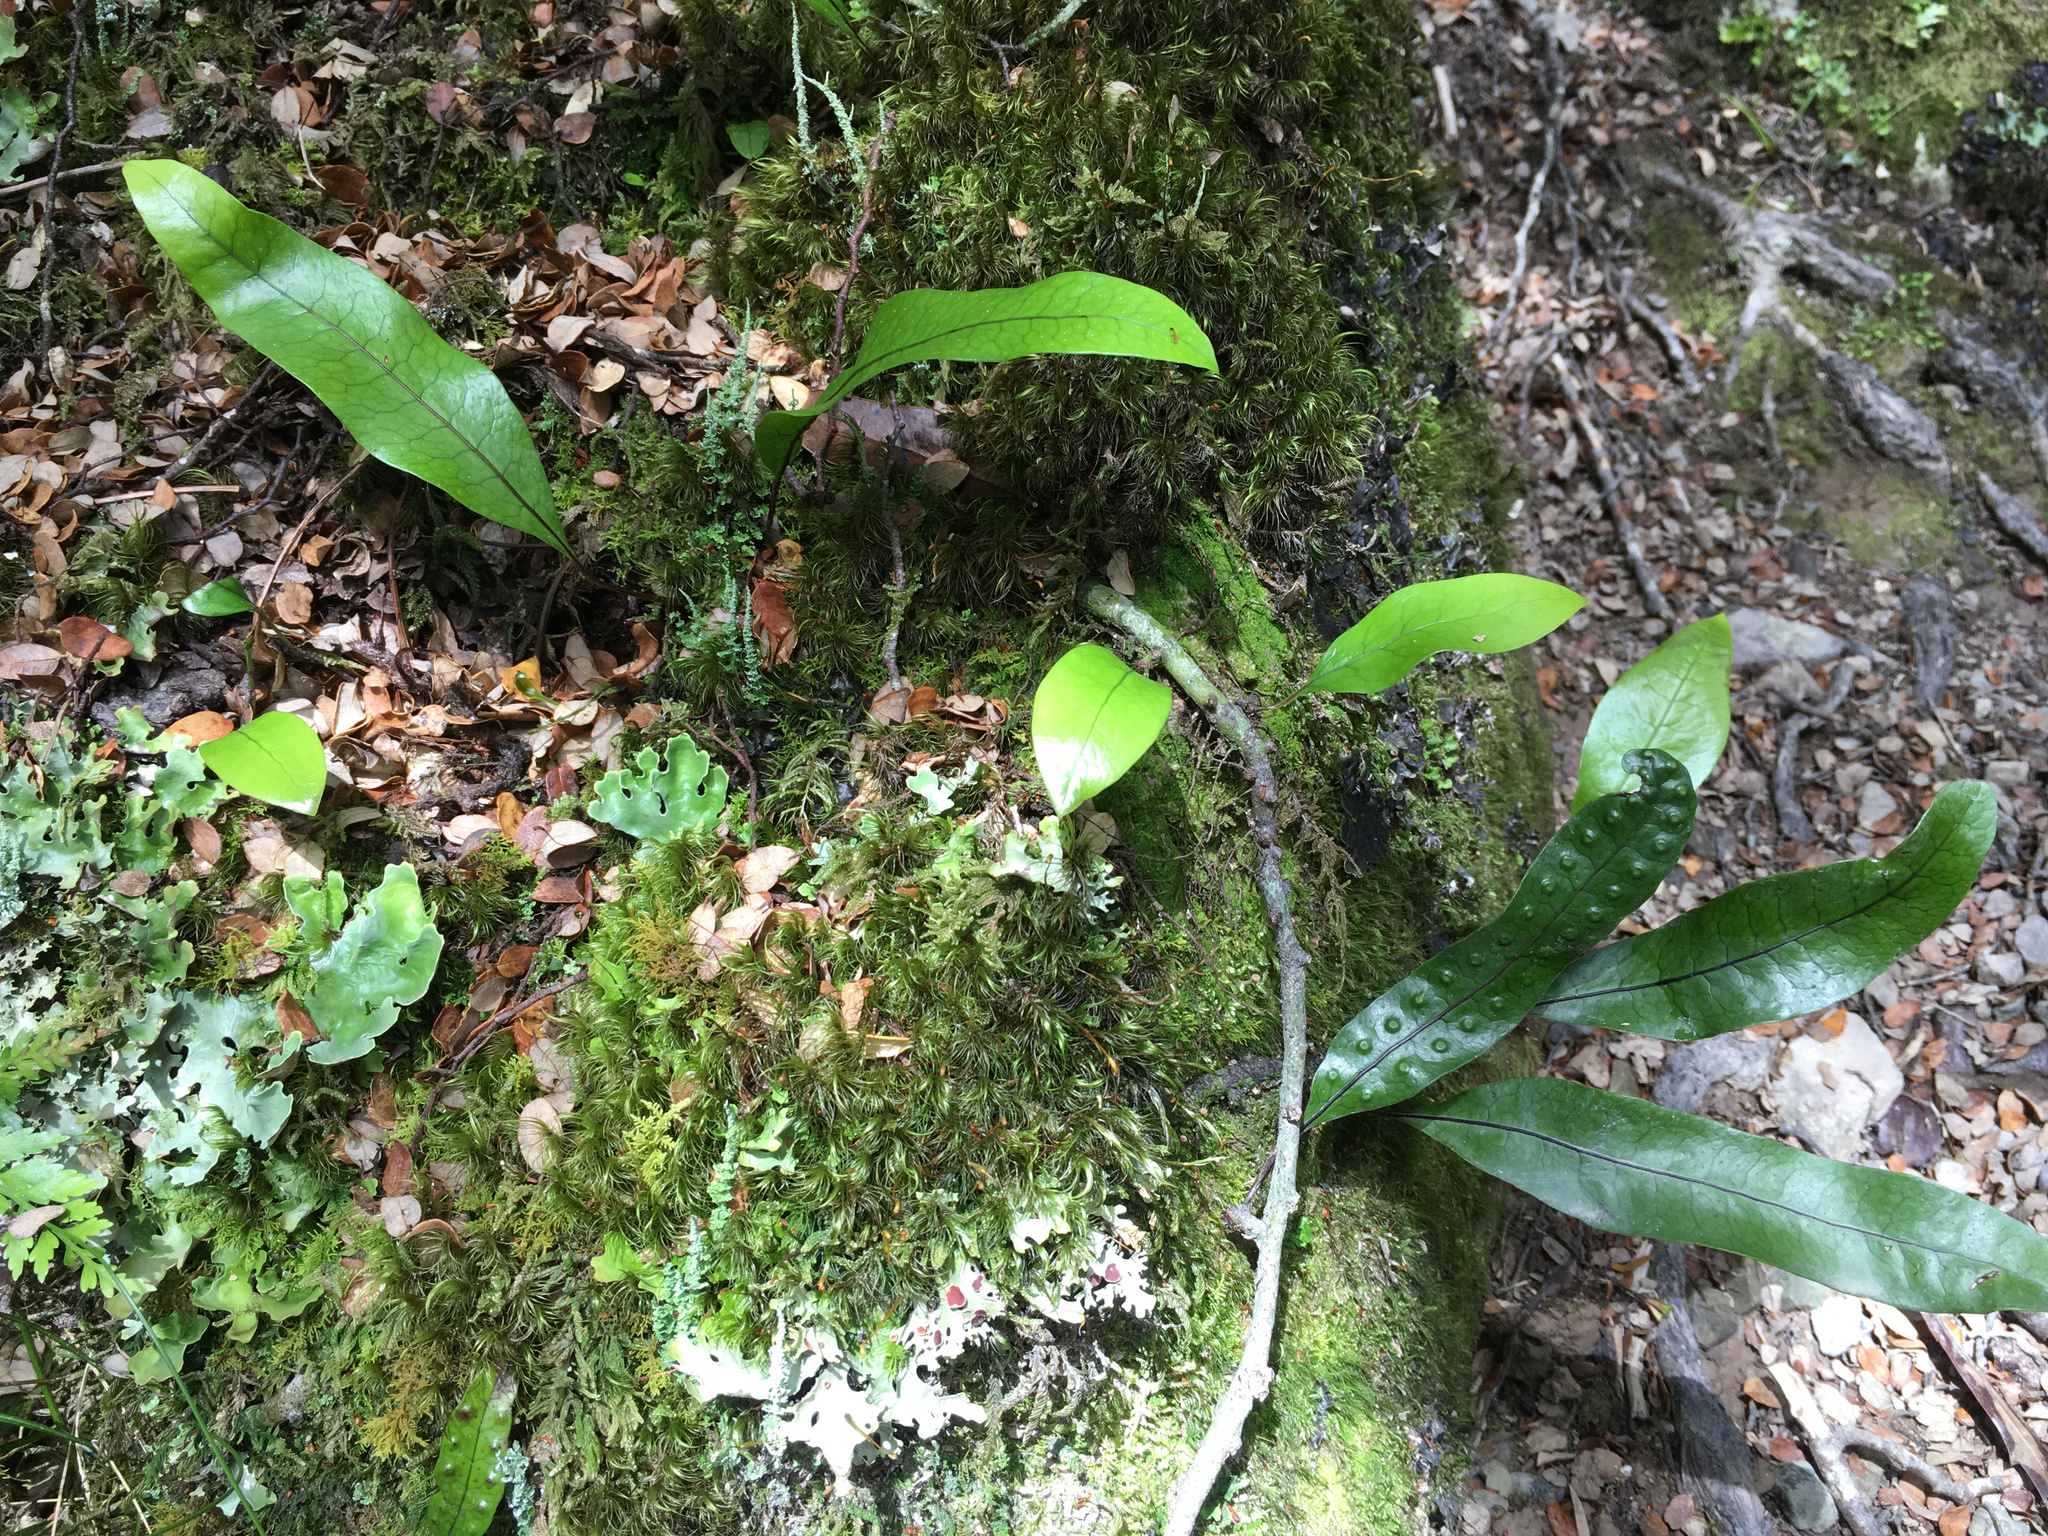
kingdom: Plantae
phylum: Tracheophyta
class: Polypodiopsida
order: Polypodiales
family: Polypodiaceae
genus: Lecanopteris
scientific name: Lecanopteris pustulata
